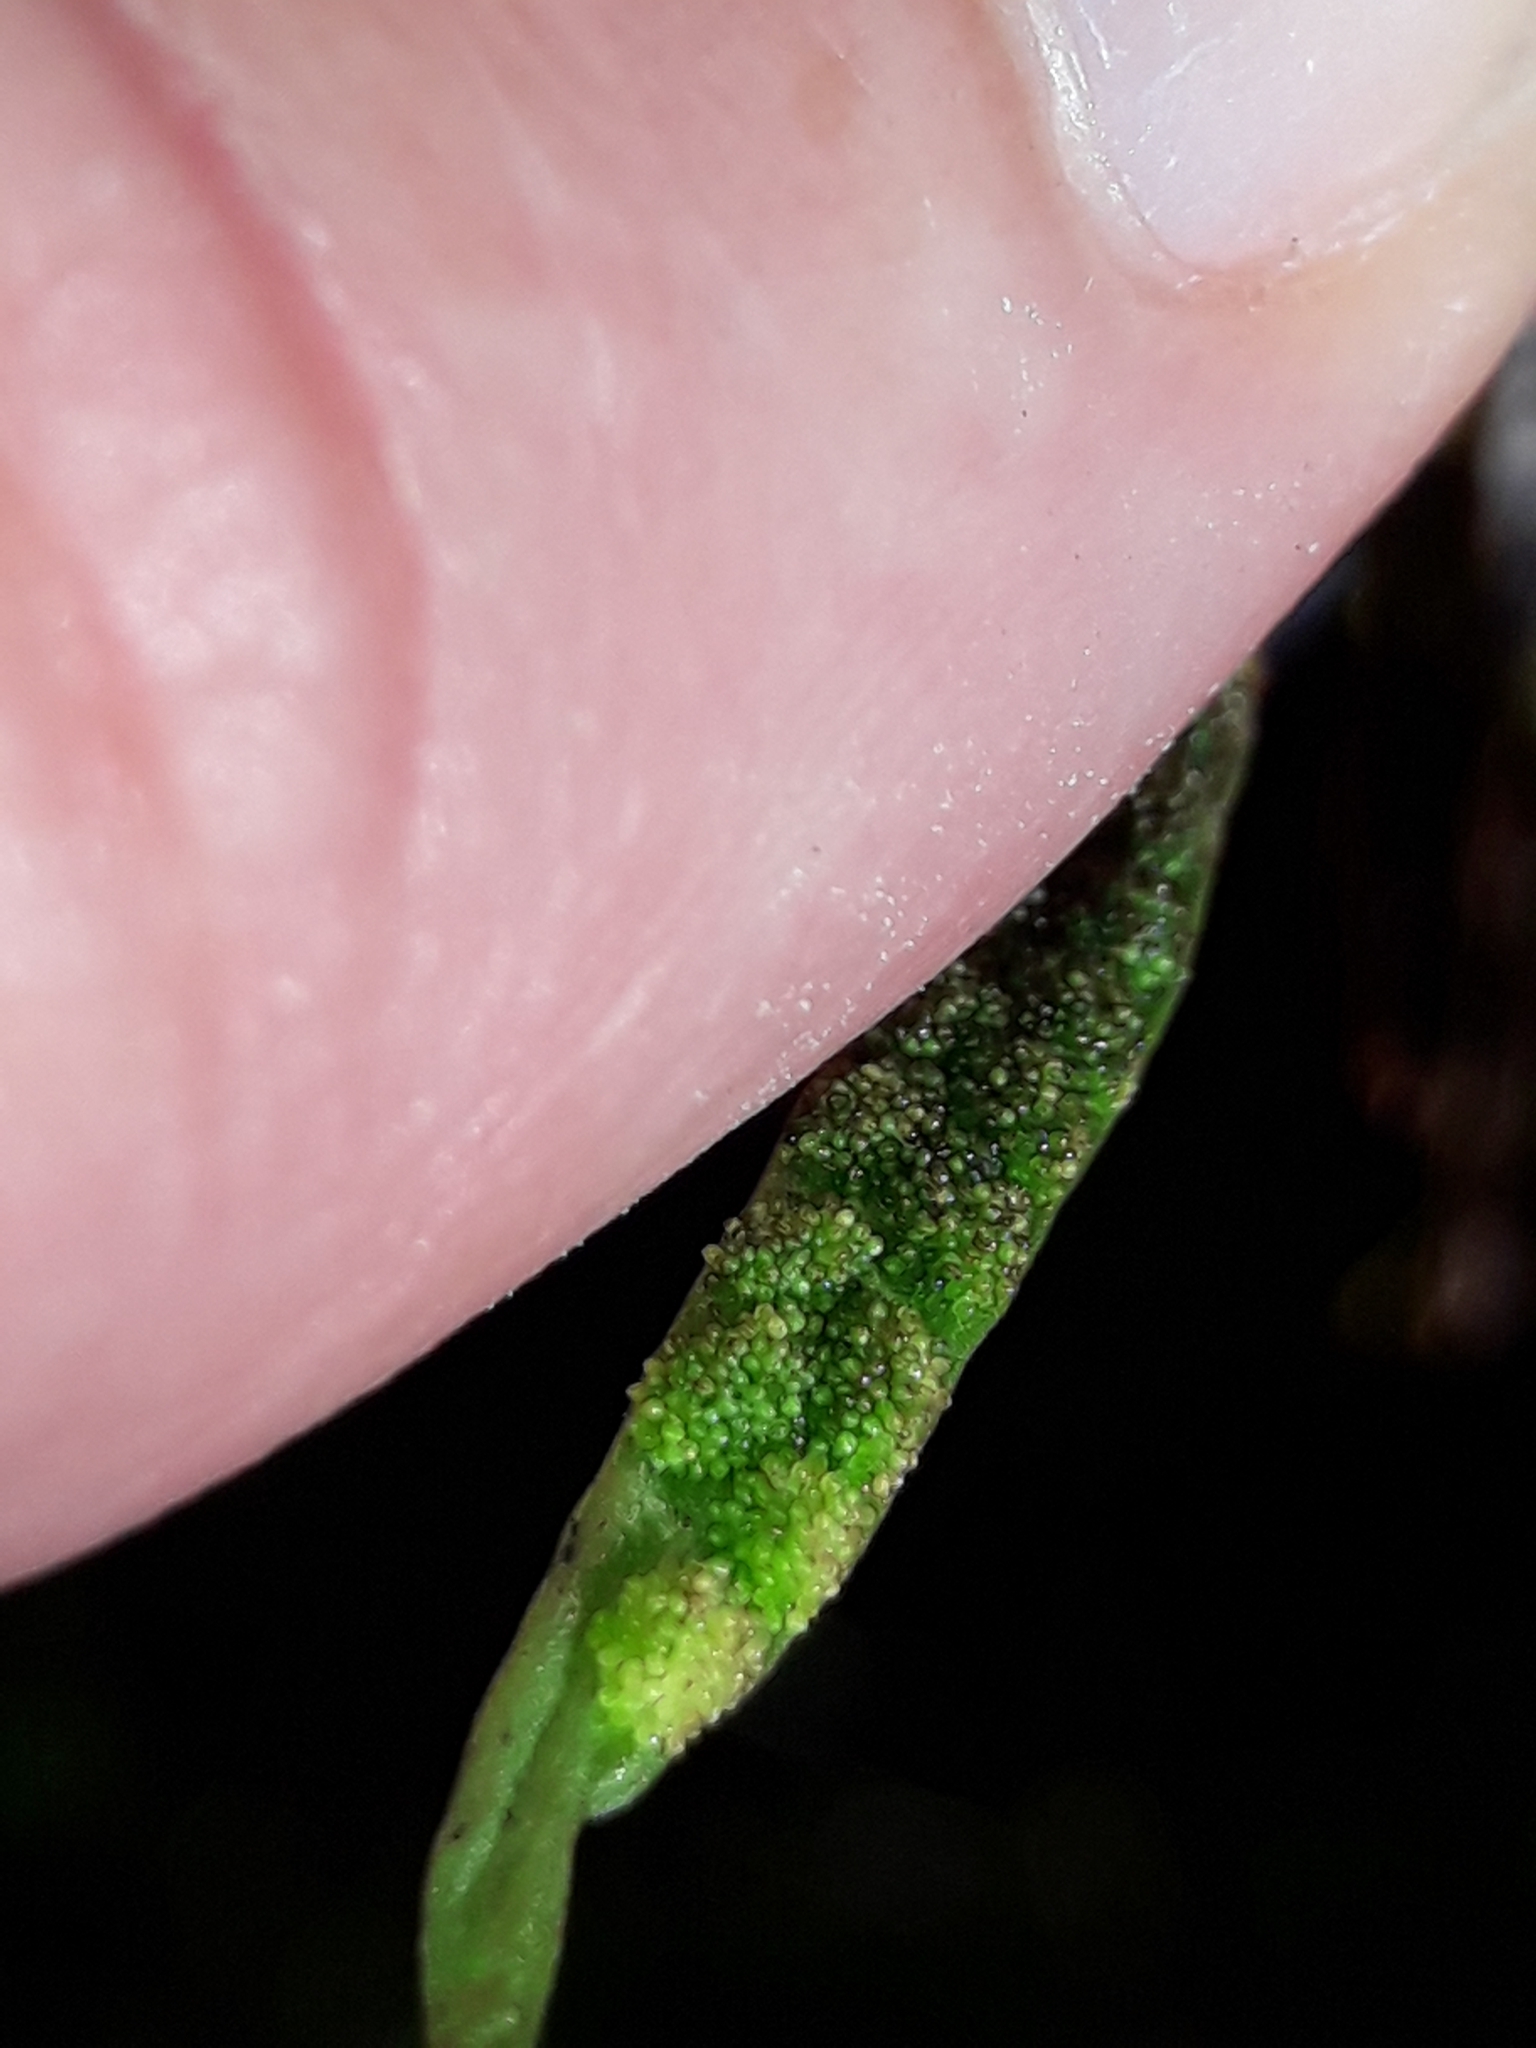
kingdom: Plantae
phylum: Tracheophyta
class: Polypodiopsida
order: Polypodiales
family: Polypodiaceae
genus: Notogrammitis
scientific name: Notogrammitis angustifolia
